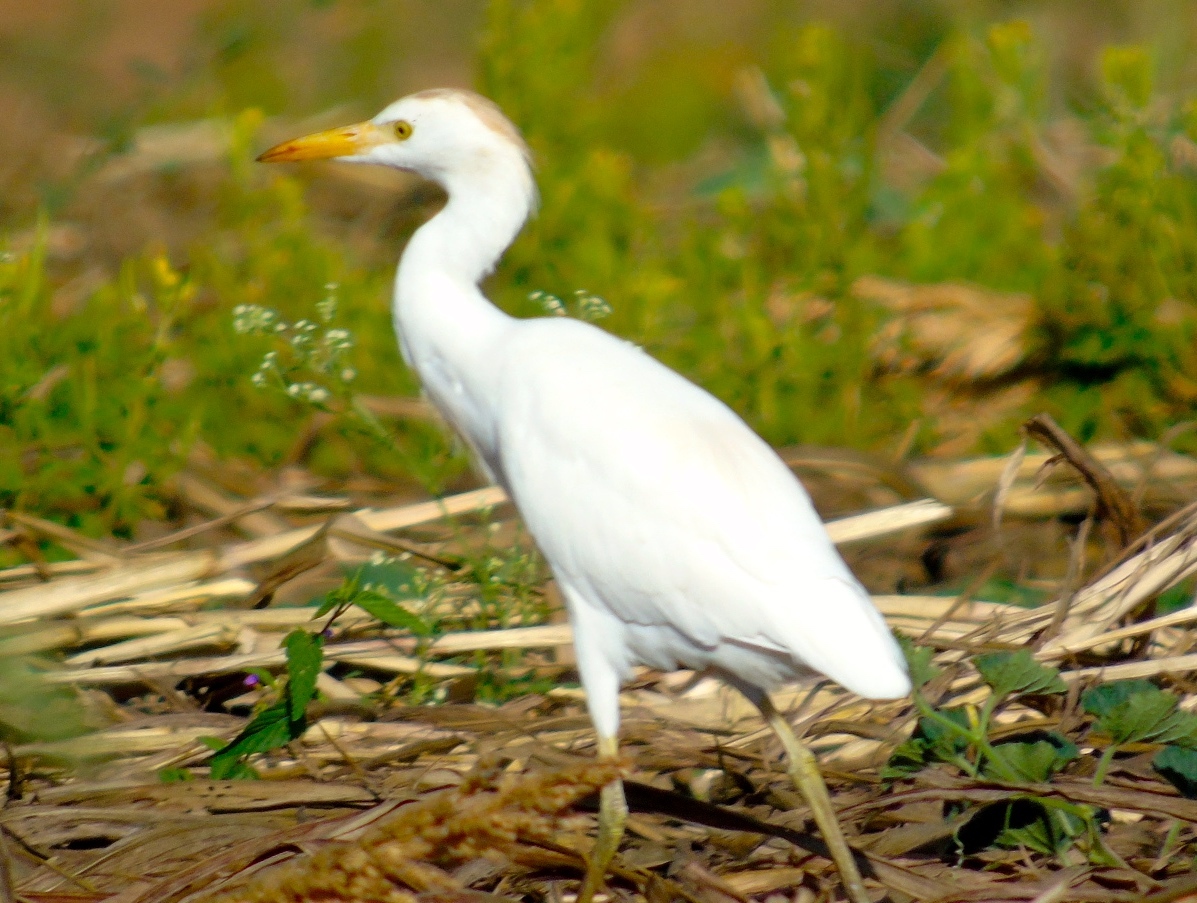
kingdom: Animalia
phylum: Chordata
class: Aves
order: Pelecaniformes
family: Ardeidae
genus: Bubulcus
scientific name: Bubulcus ibis
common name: Cattle egret
